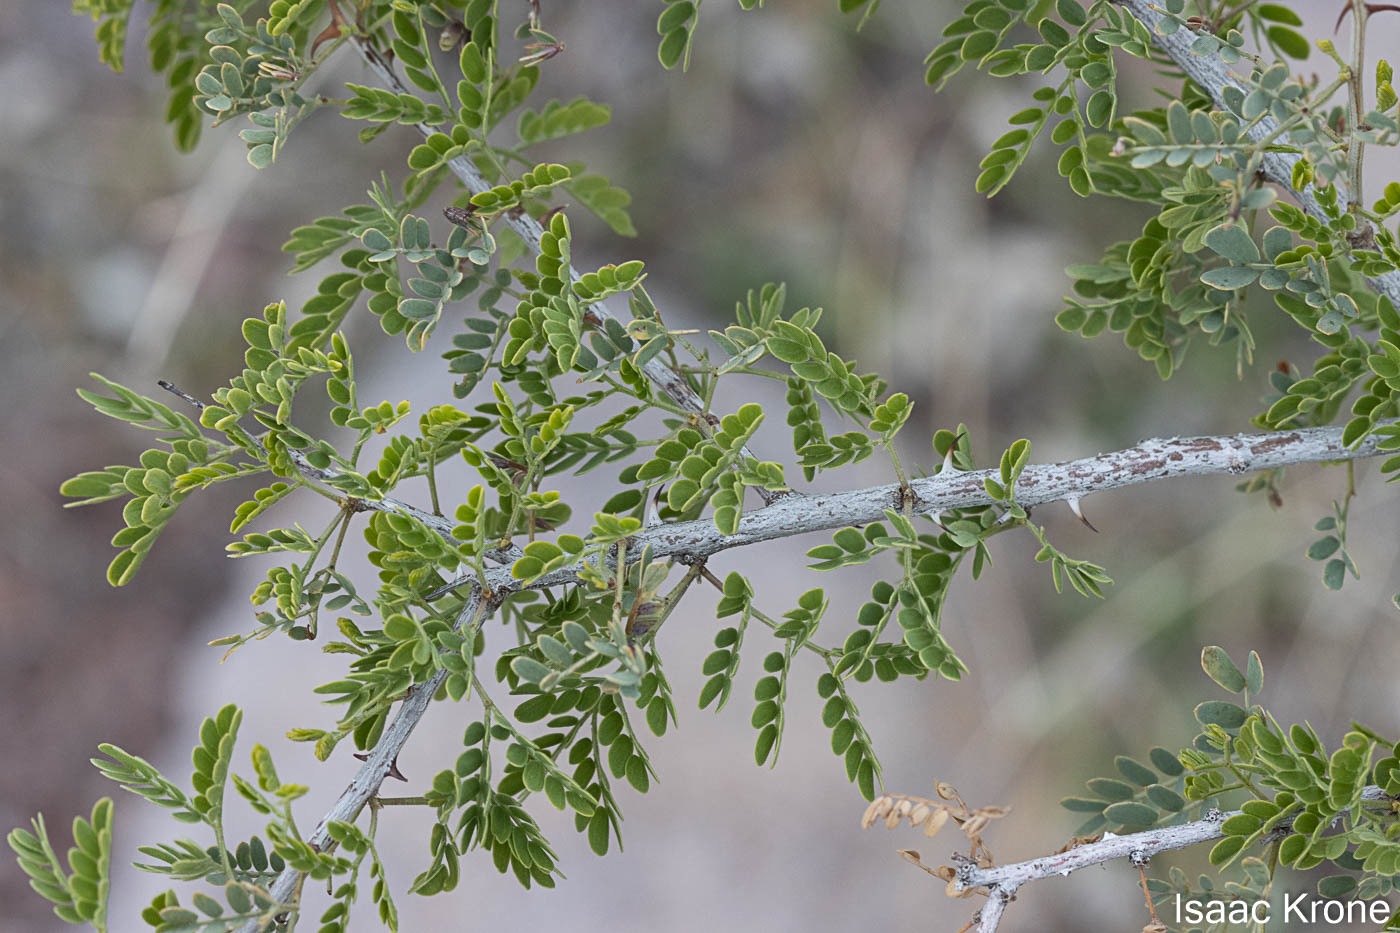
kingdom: Plantae
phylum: Tracheophyta
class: Magnoliopsida
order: Fabales
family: Fabaceae
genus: Senegalia
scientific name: Senegalia greggii
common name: Texas-mimosa
